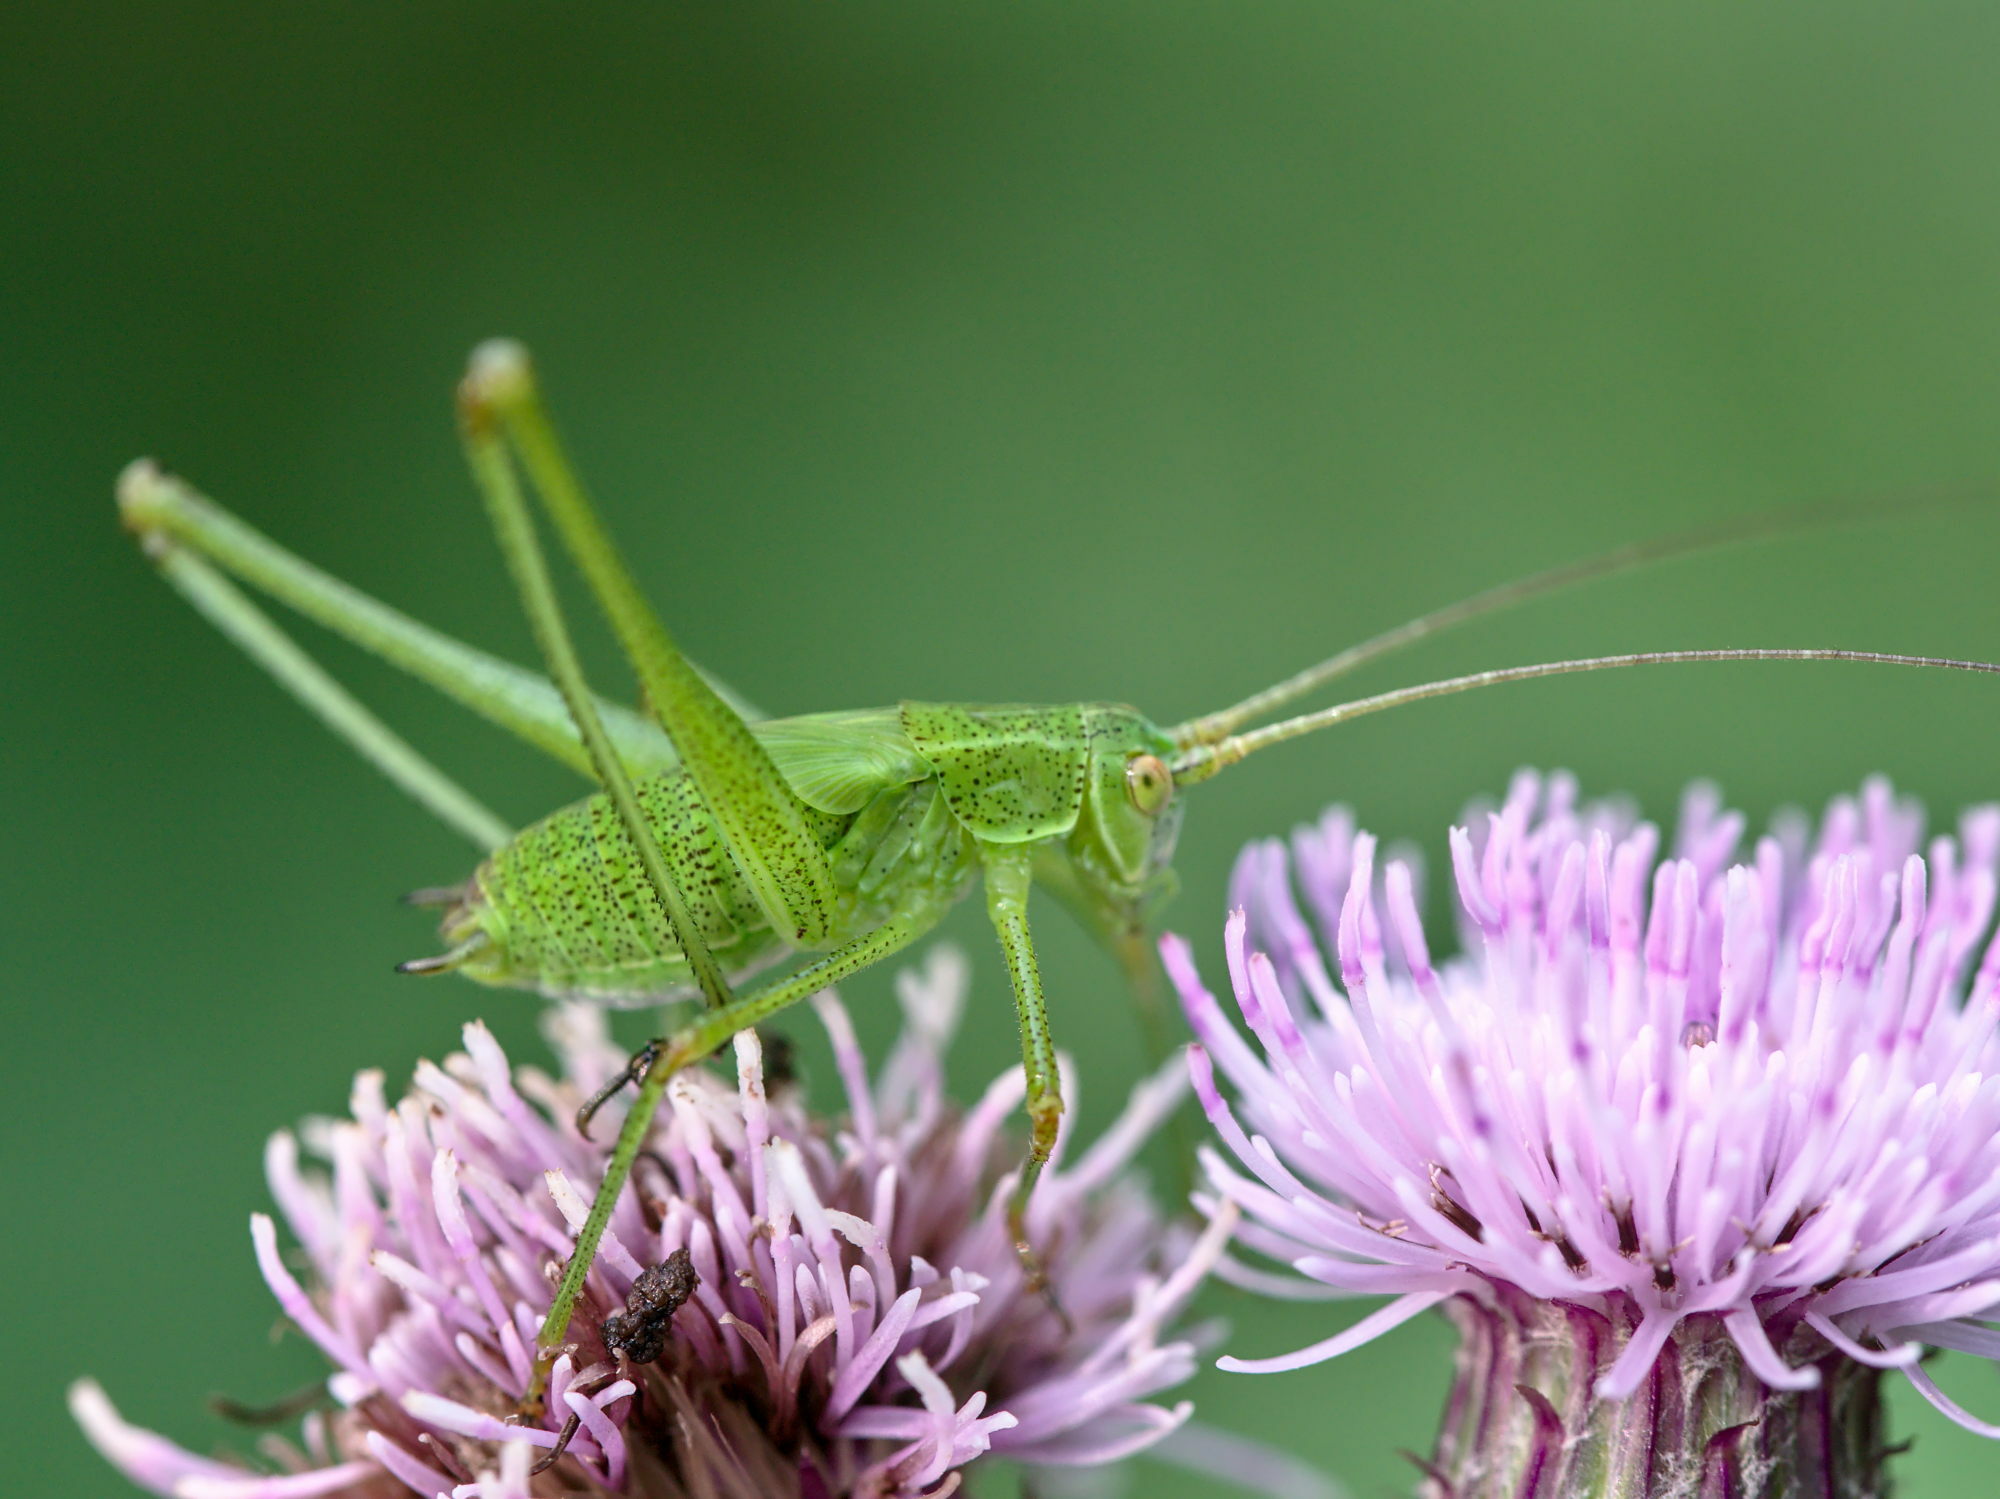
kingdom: Animalia
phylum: Arthropoda
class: Insecta
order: Orthoptera
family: Tettigoniidae
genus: Phaneroptera
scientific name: Phaneroptera falcata
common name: Sickle-bearing bush-cricket
